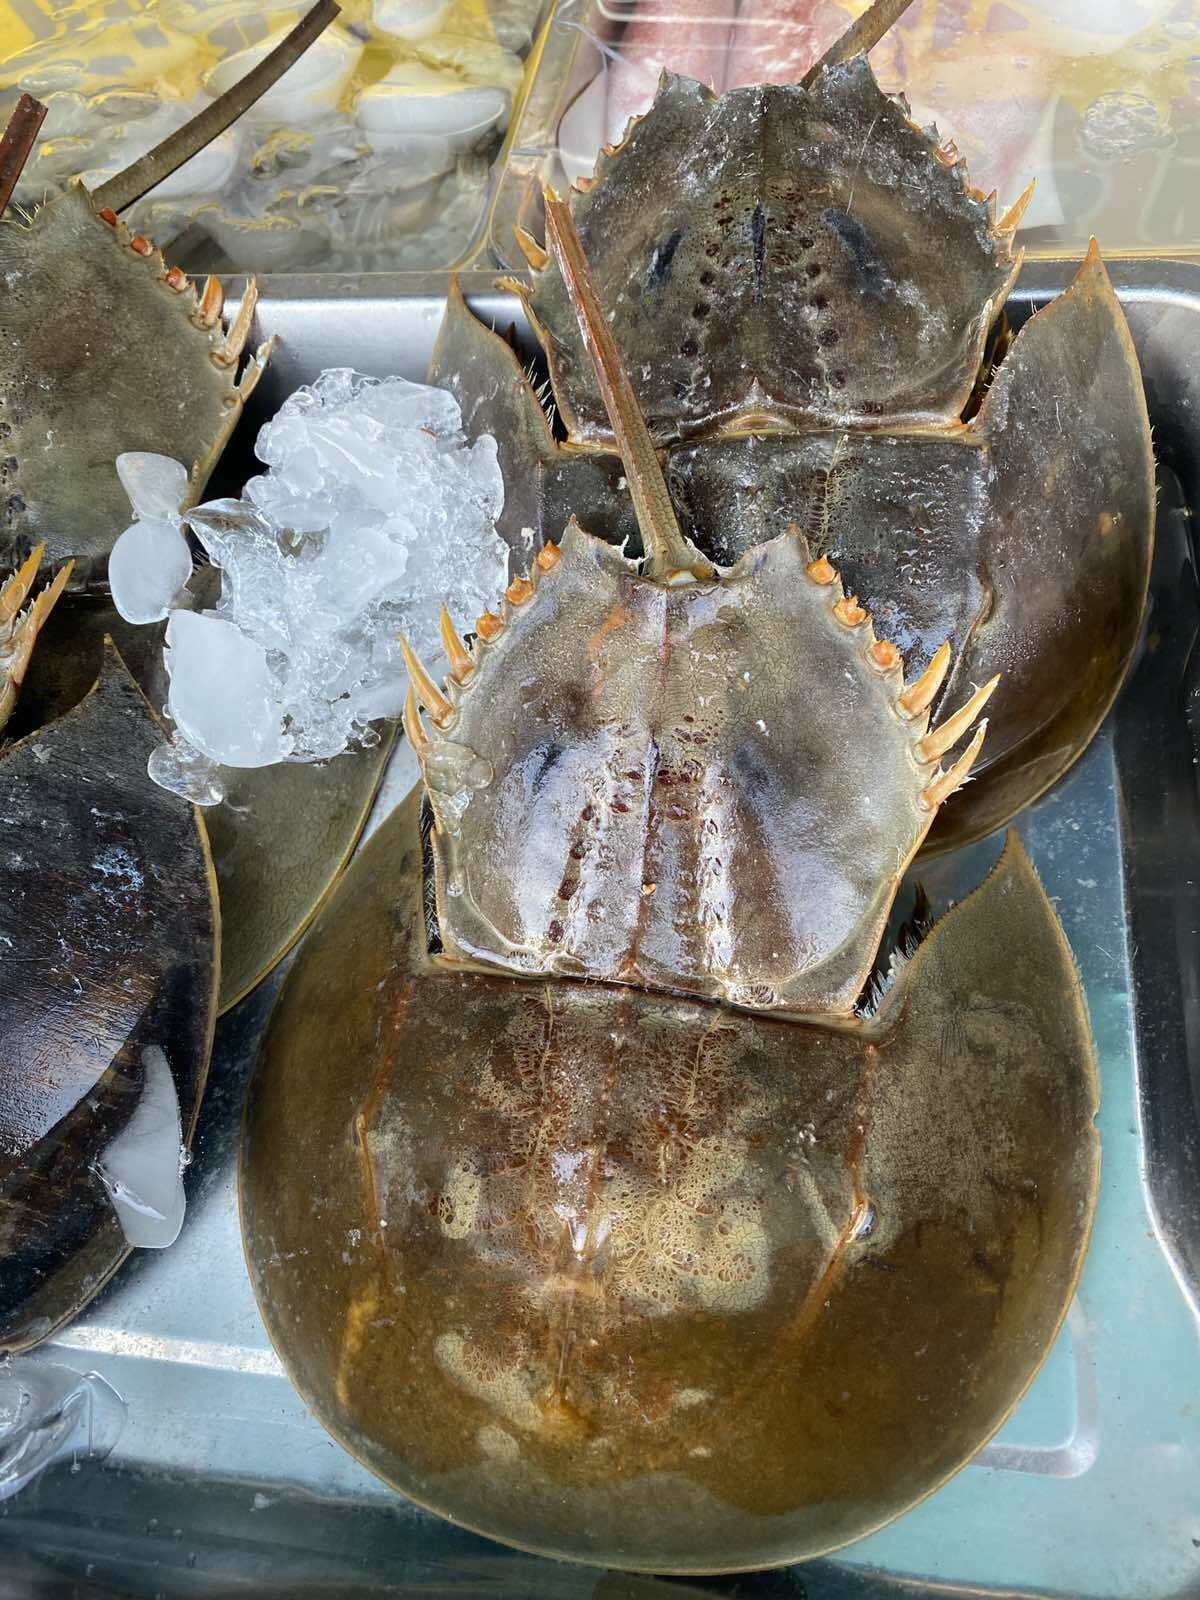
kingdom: Animalia
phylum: Arthropoda
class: Merostomata
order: Xiphosurida
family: Limulidae
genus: Tachypleus
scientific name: Tachypleus gigas
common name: Coastal horseshoe crab
